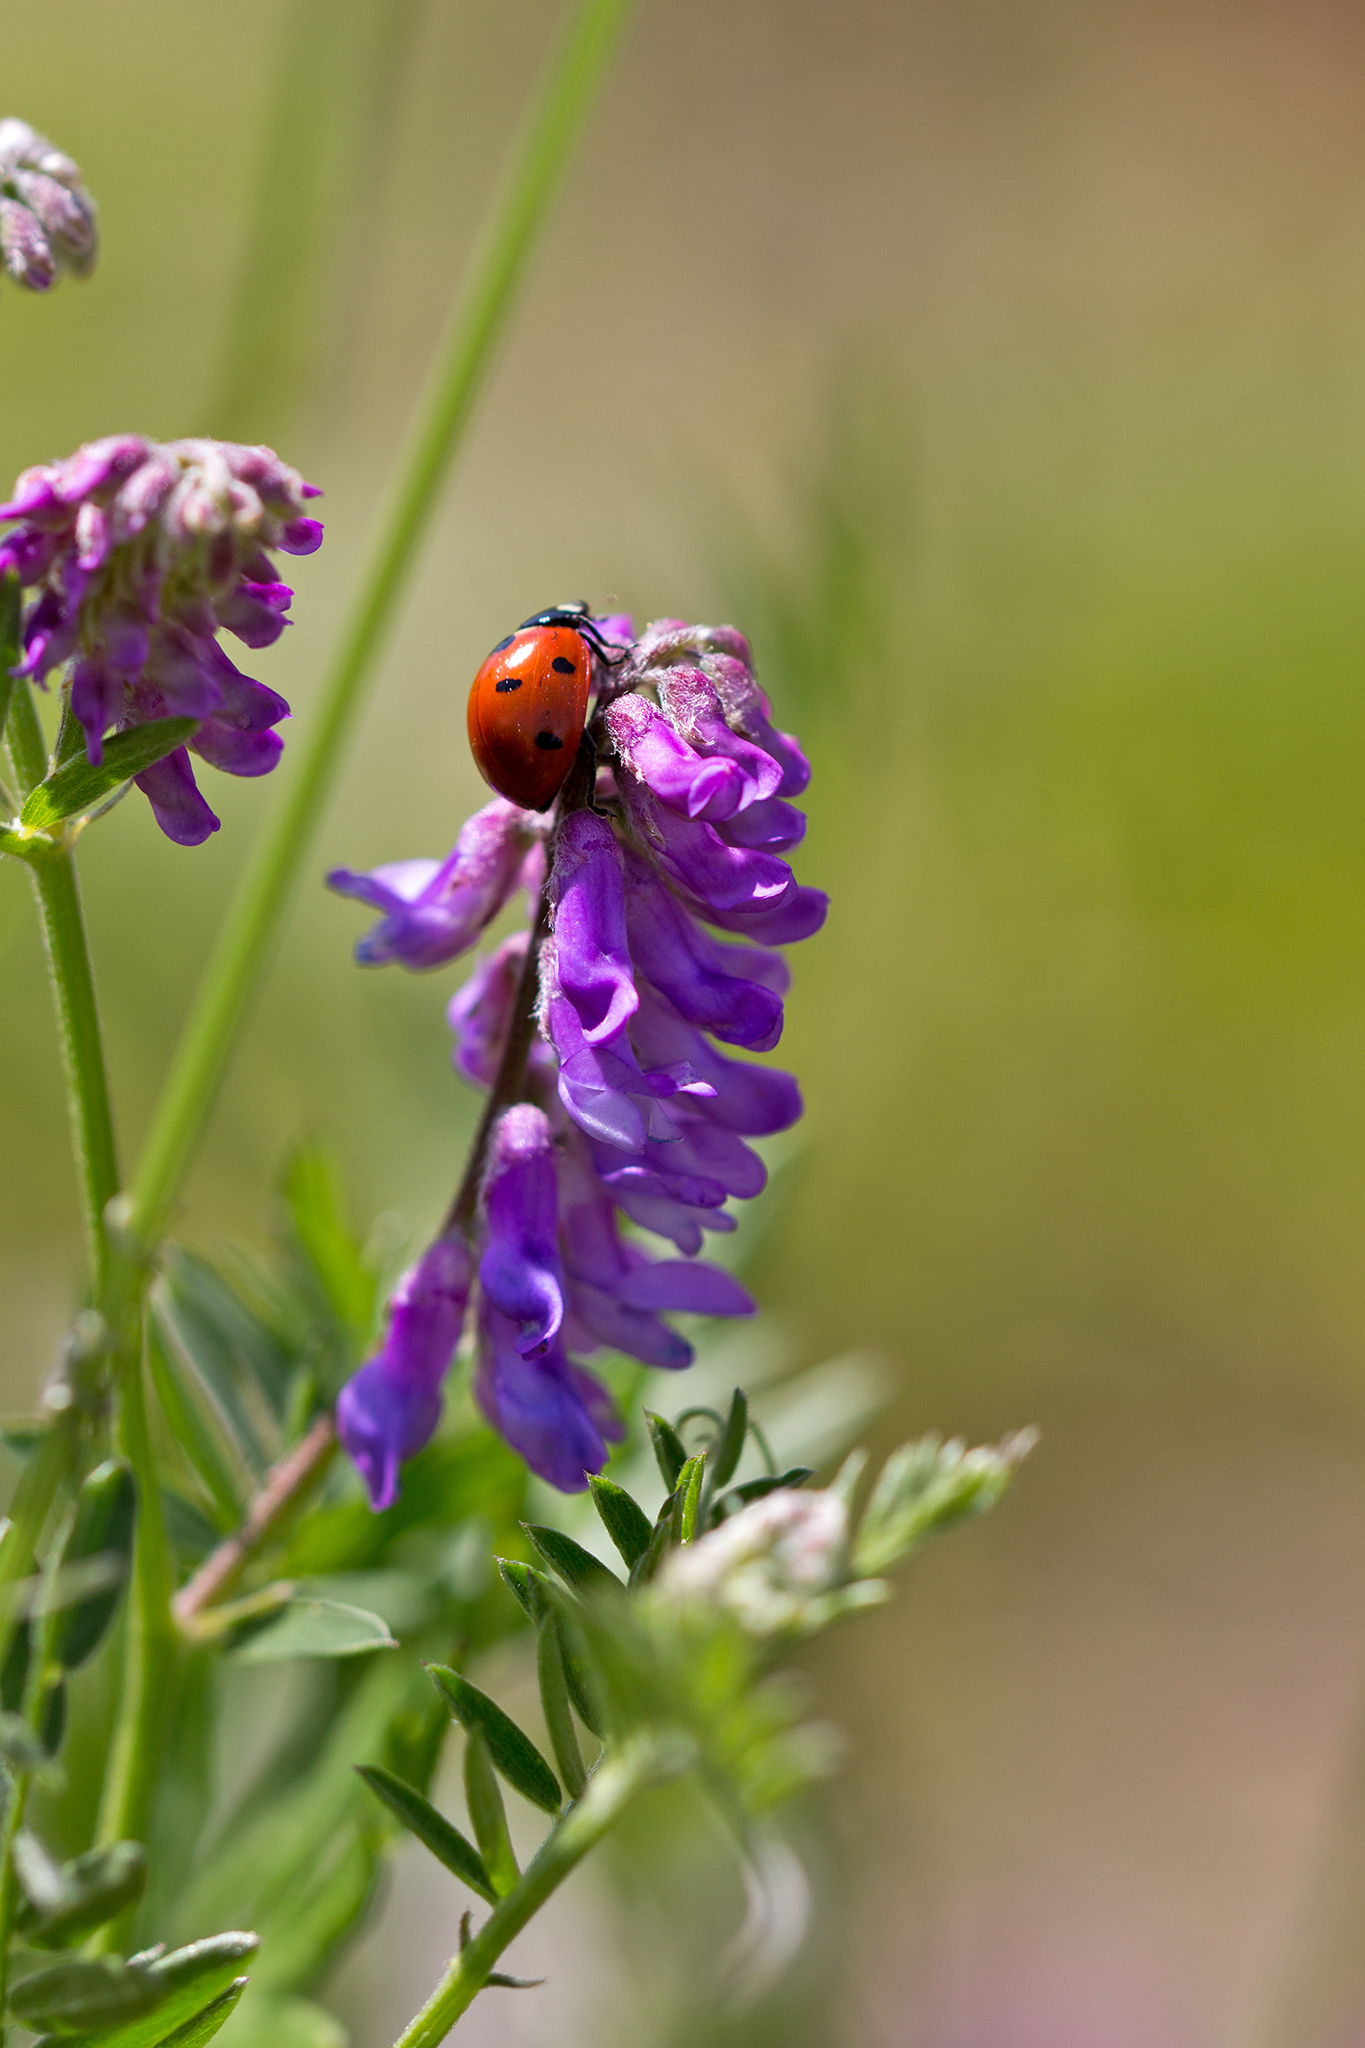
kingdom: Animalia
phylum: Arthropoda
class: Insecta
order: Coleoptera
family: Coccinellidae
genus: Coccinella
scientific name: Coccinella septempunctata
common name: Sevenspotted lady beetle
